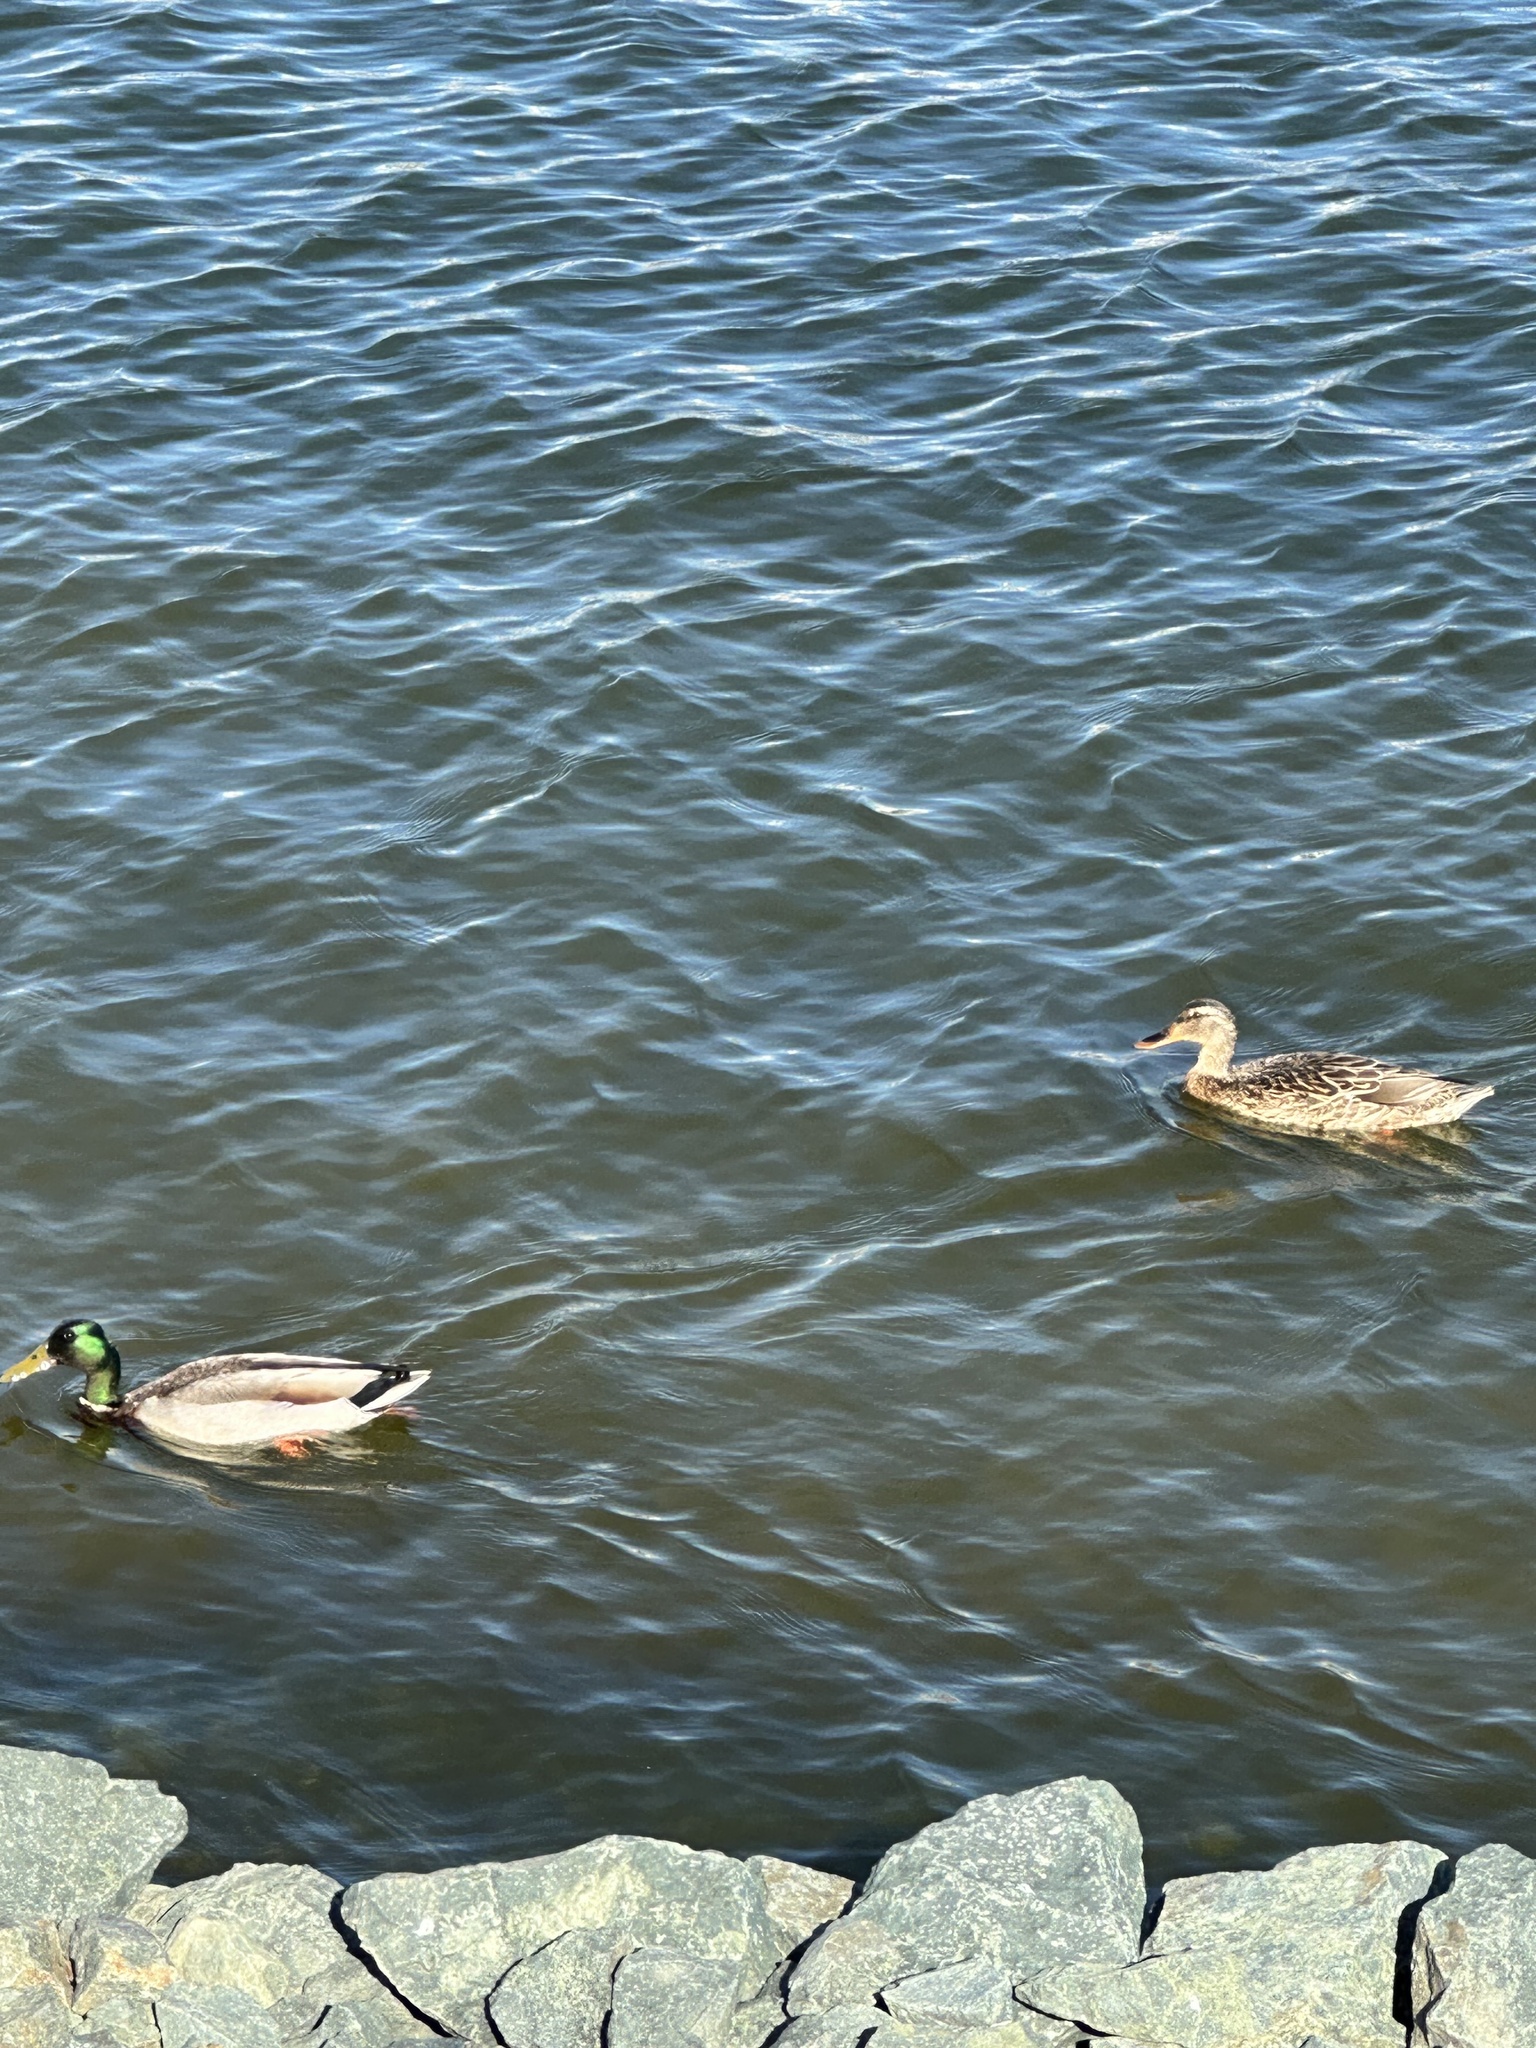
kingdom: Animalia
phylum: Chordata
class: Aves
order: Anseriformes
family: Anatidae
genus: Anas
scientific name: Anas platyrhynchos
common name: Mallard
